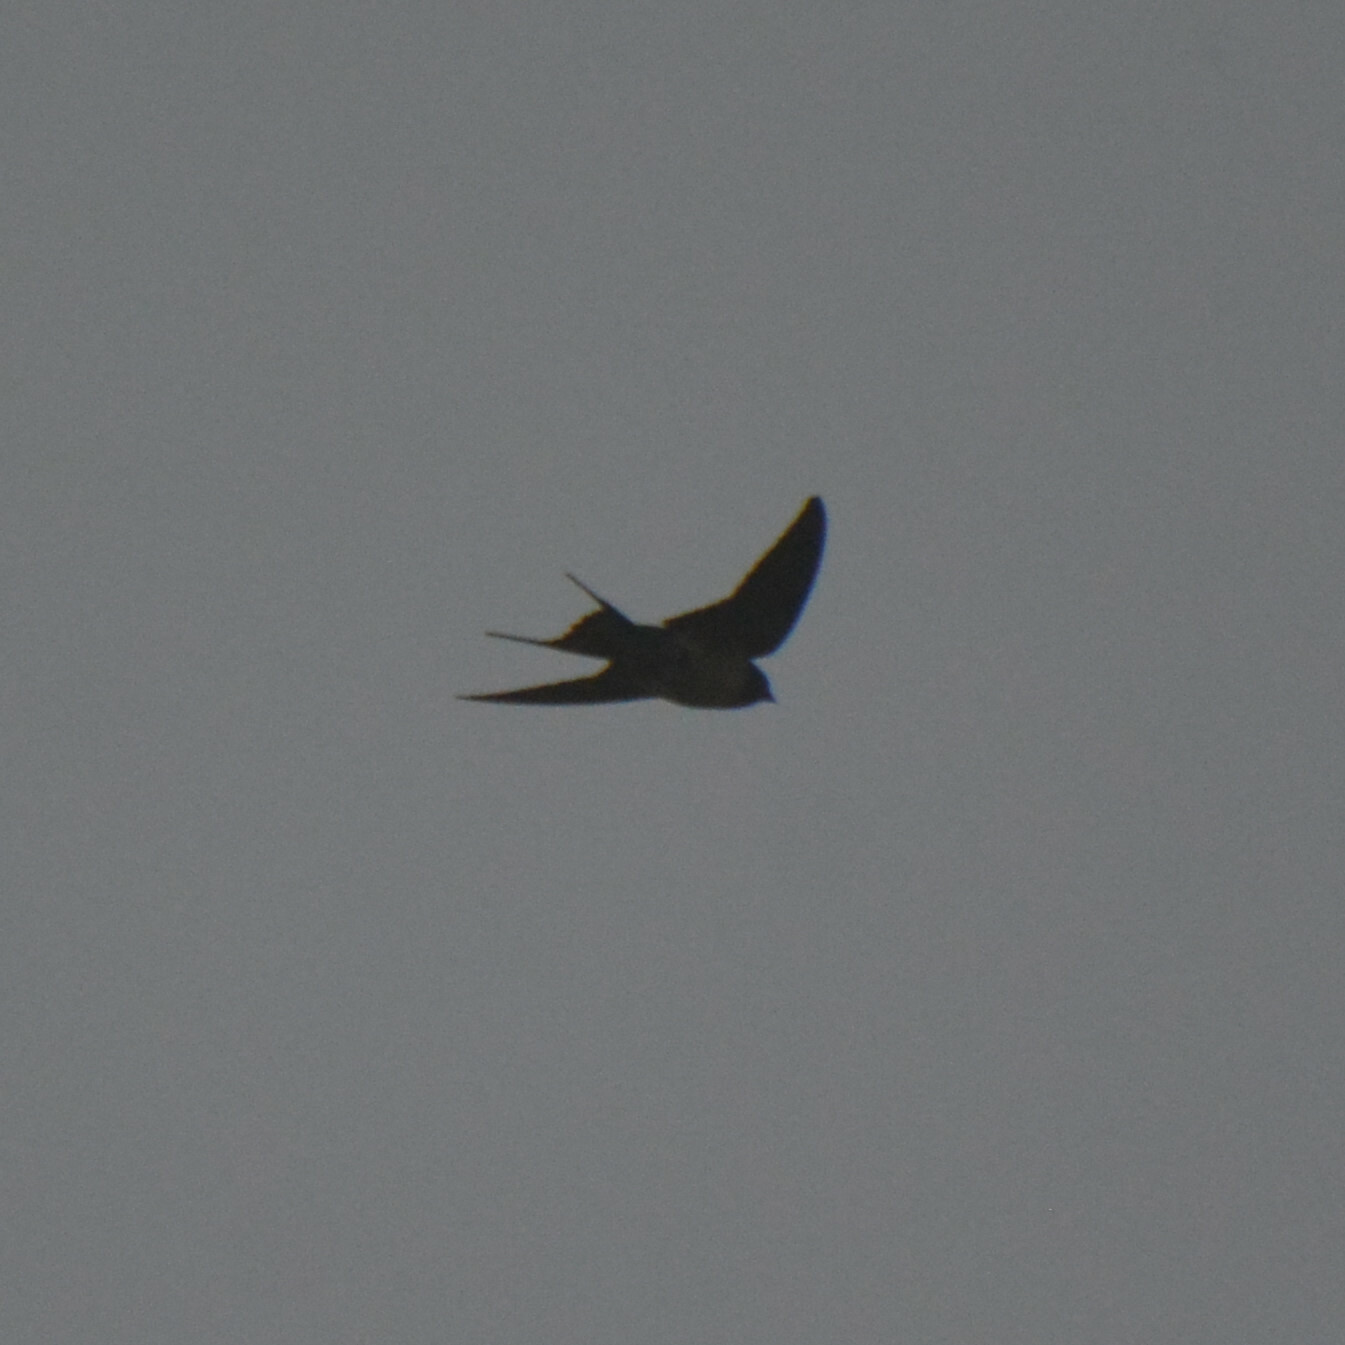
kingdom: Animalia
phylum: Chordata
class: Aves
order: Passeriformes
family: Hirundinidae
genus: Hirundo
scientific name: Hirundo rustica
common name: Barn swallow
